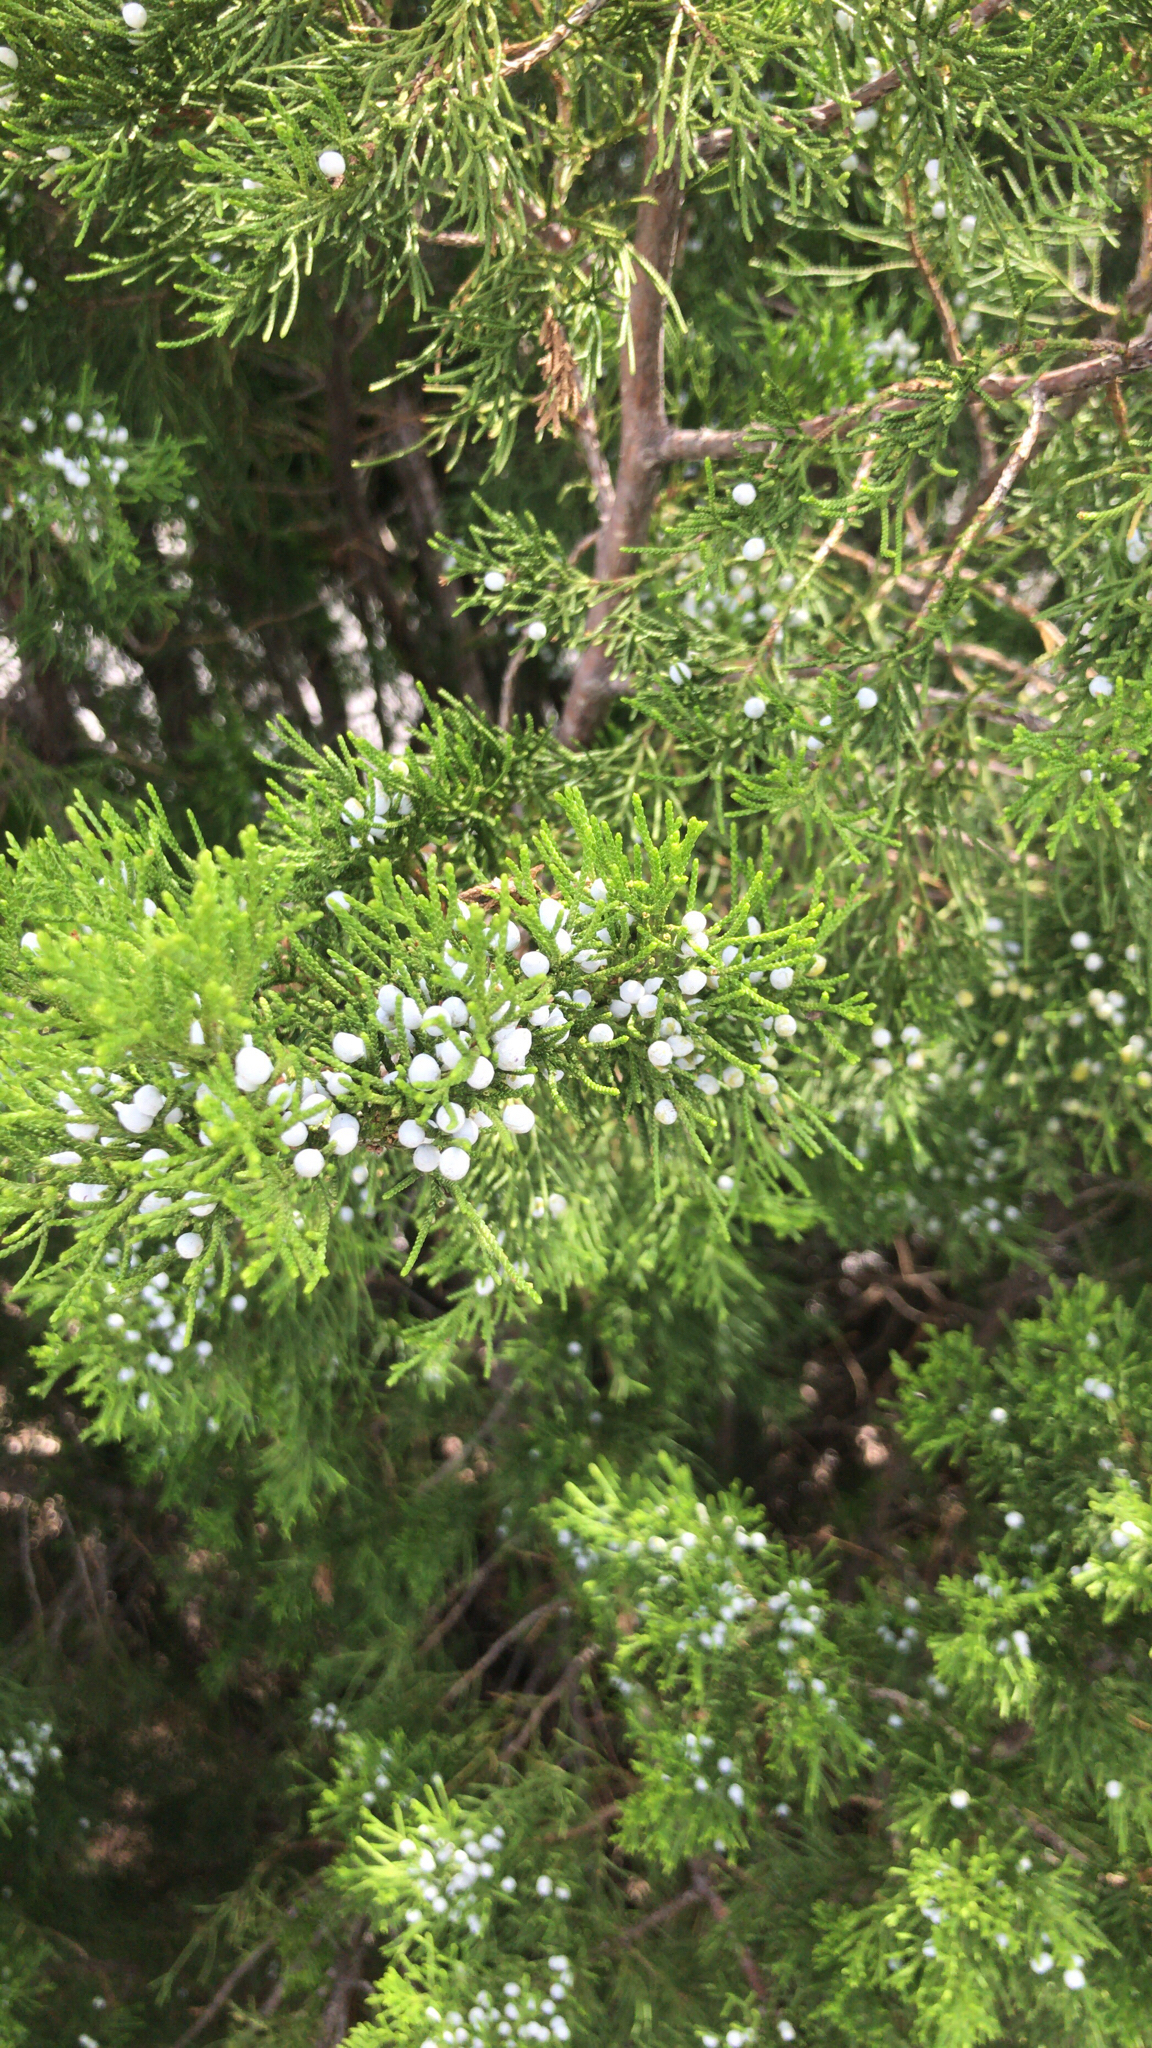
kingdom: Plantae
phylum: Tracheophyta
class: Pinopsida
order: Pinales
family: Cupressaceae
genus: Juniperus
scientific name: Juniperus virginiana
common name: Red juniper
